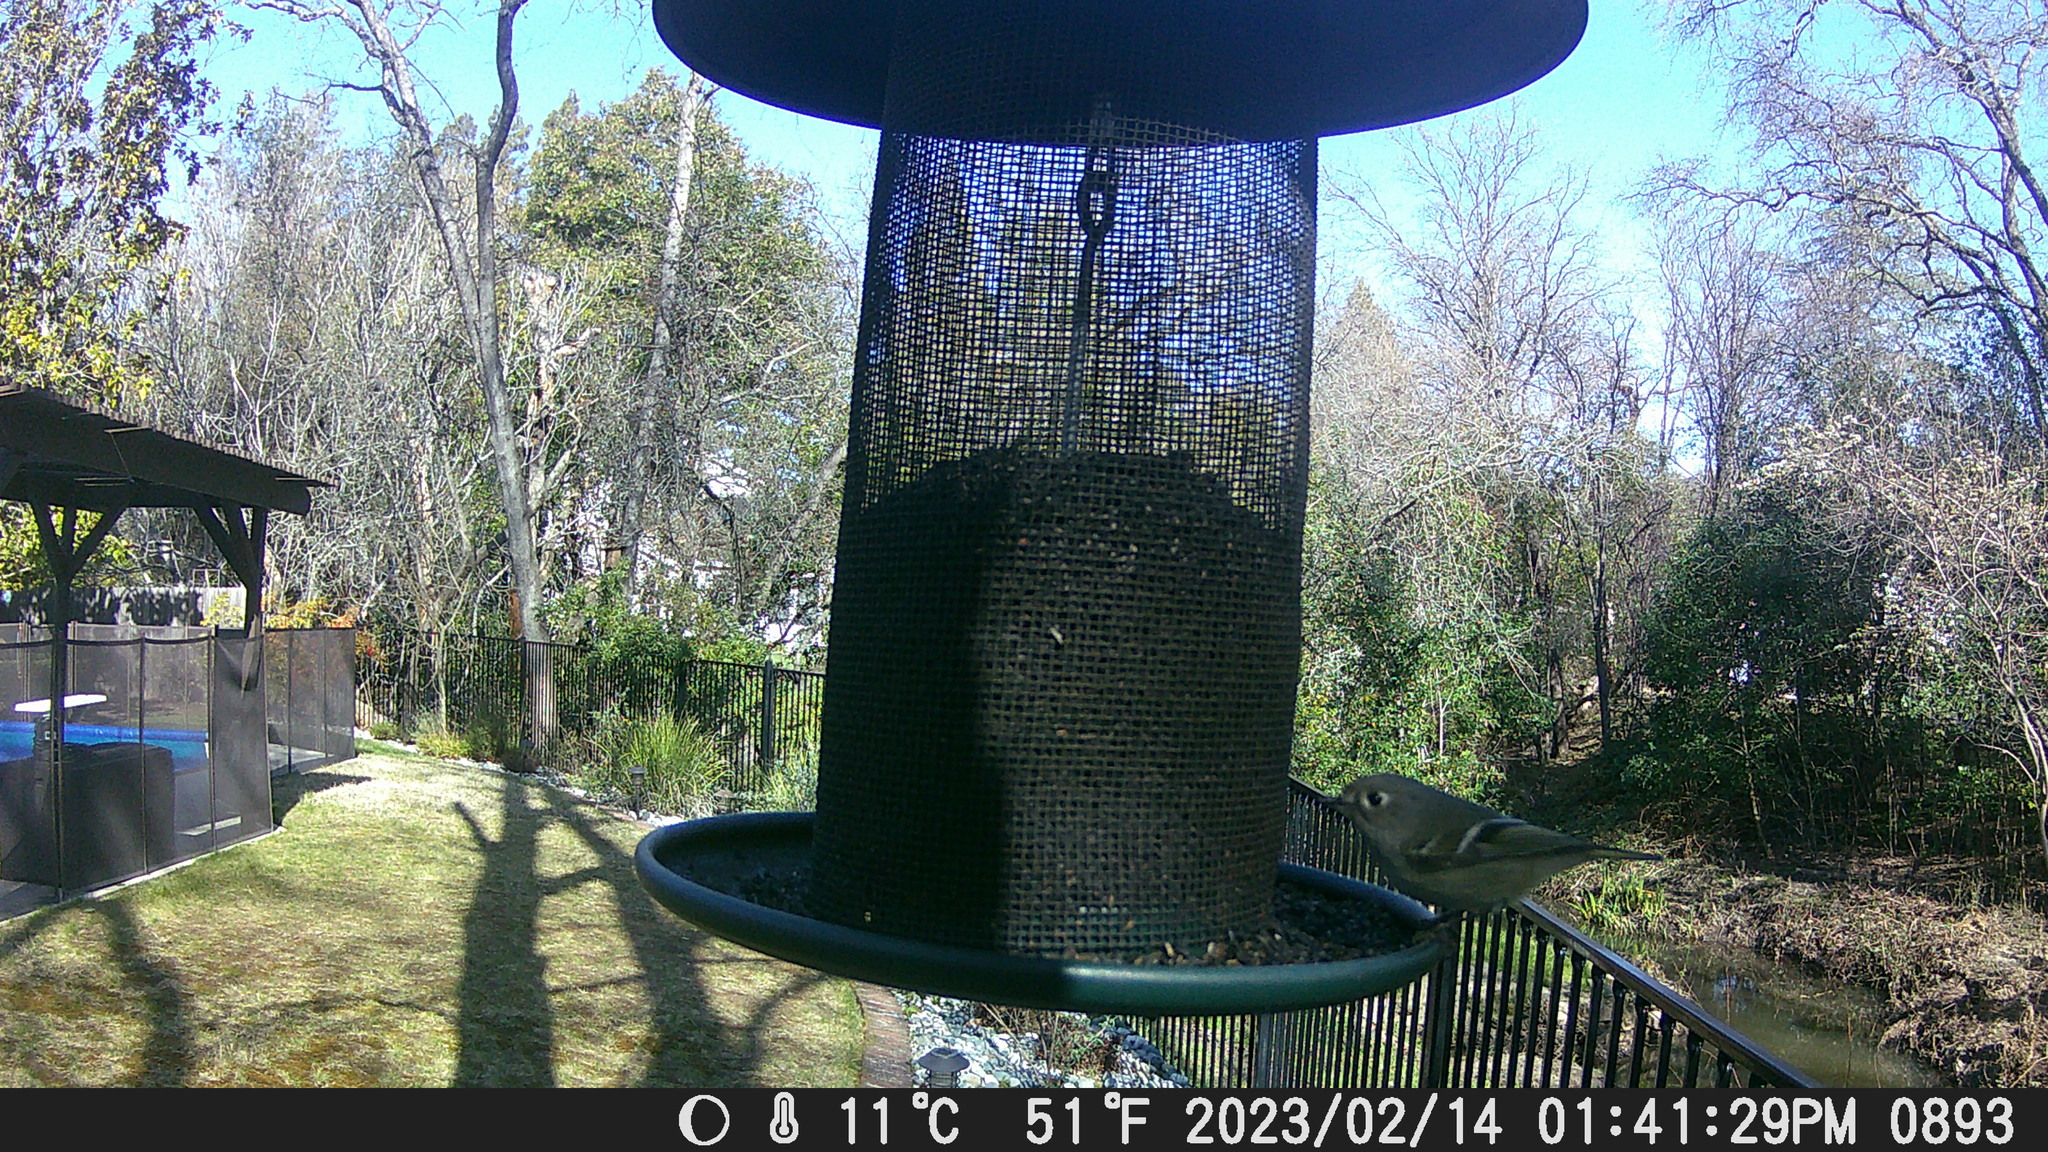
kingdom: Animalia
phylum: Chordata
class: Aves
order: Passeriformes
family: Regulidae
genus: Regulus
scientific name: Regulus calendula
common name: Ruby-crowned kinglet
